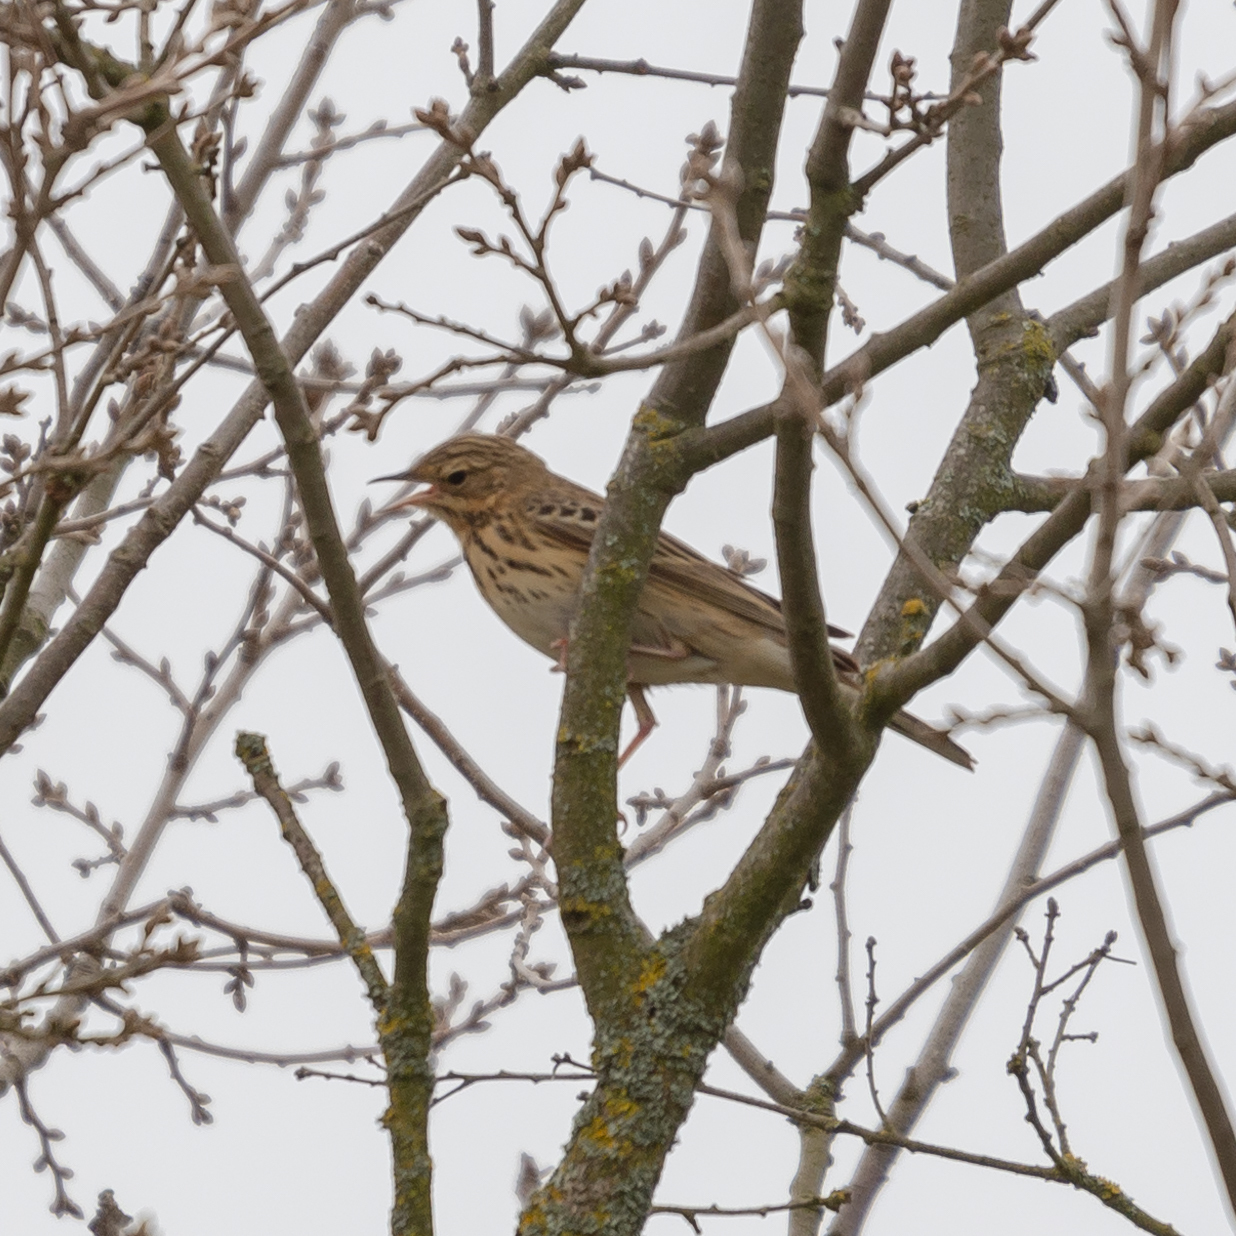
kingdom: Animalia
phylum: Chordata
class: Aves
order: Passeriformes
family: Motacillidae
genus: Anthus
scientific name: Anthus trivialis
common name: Tree pipit
